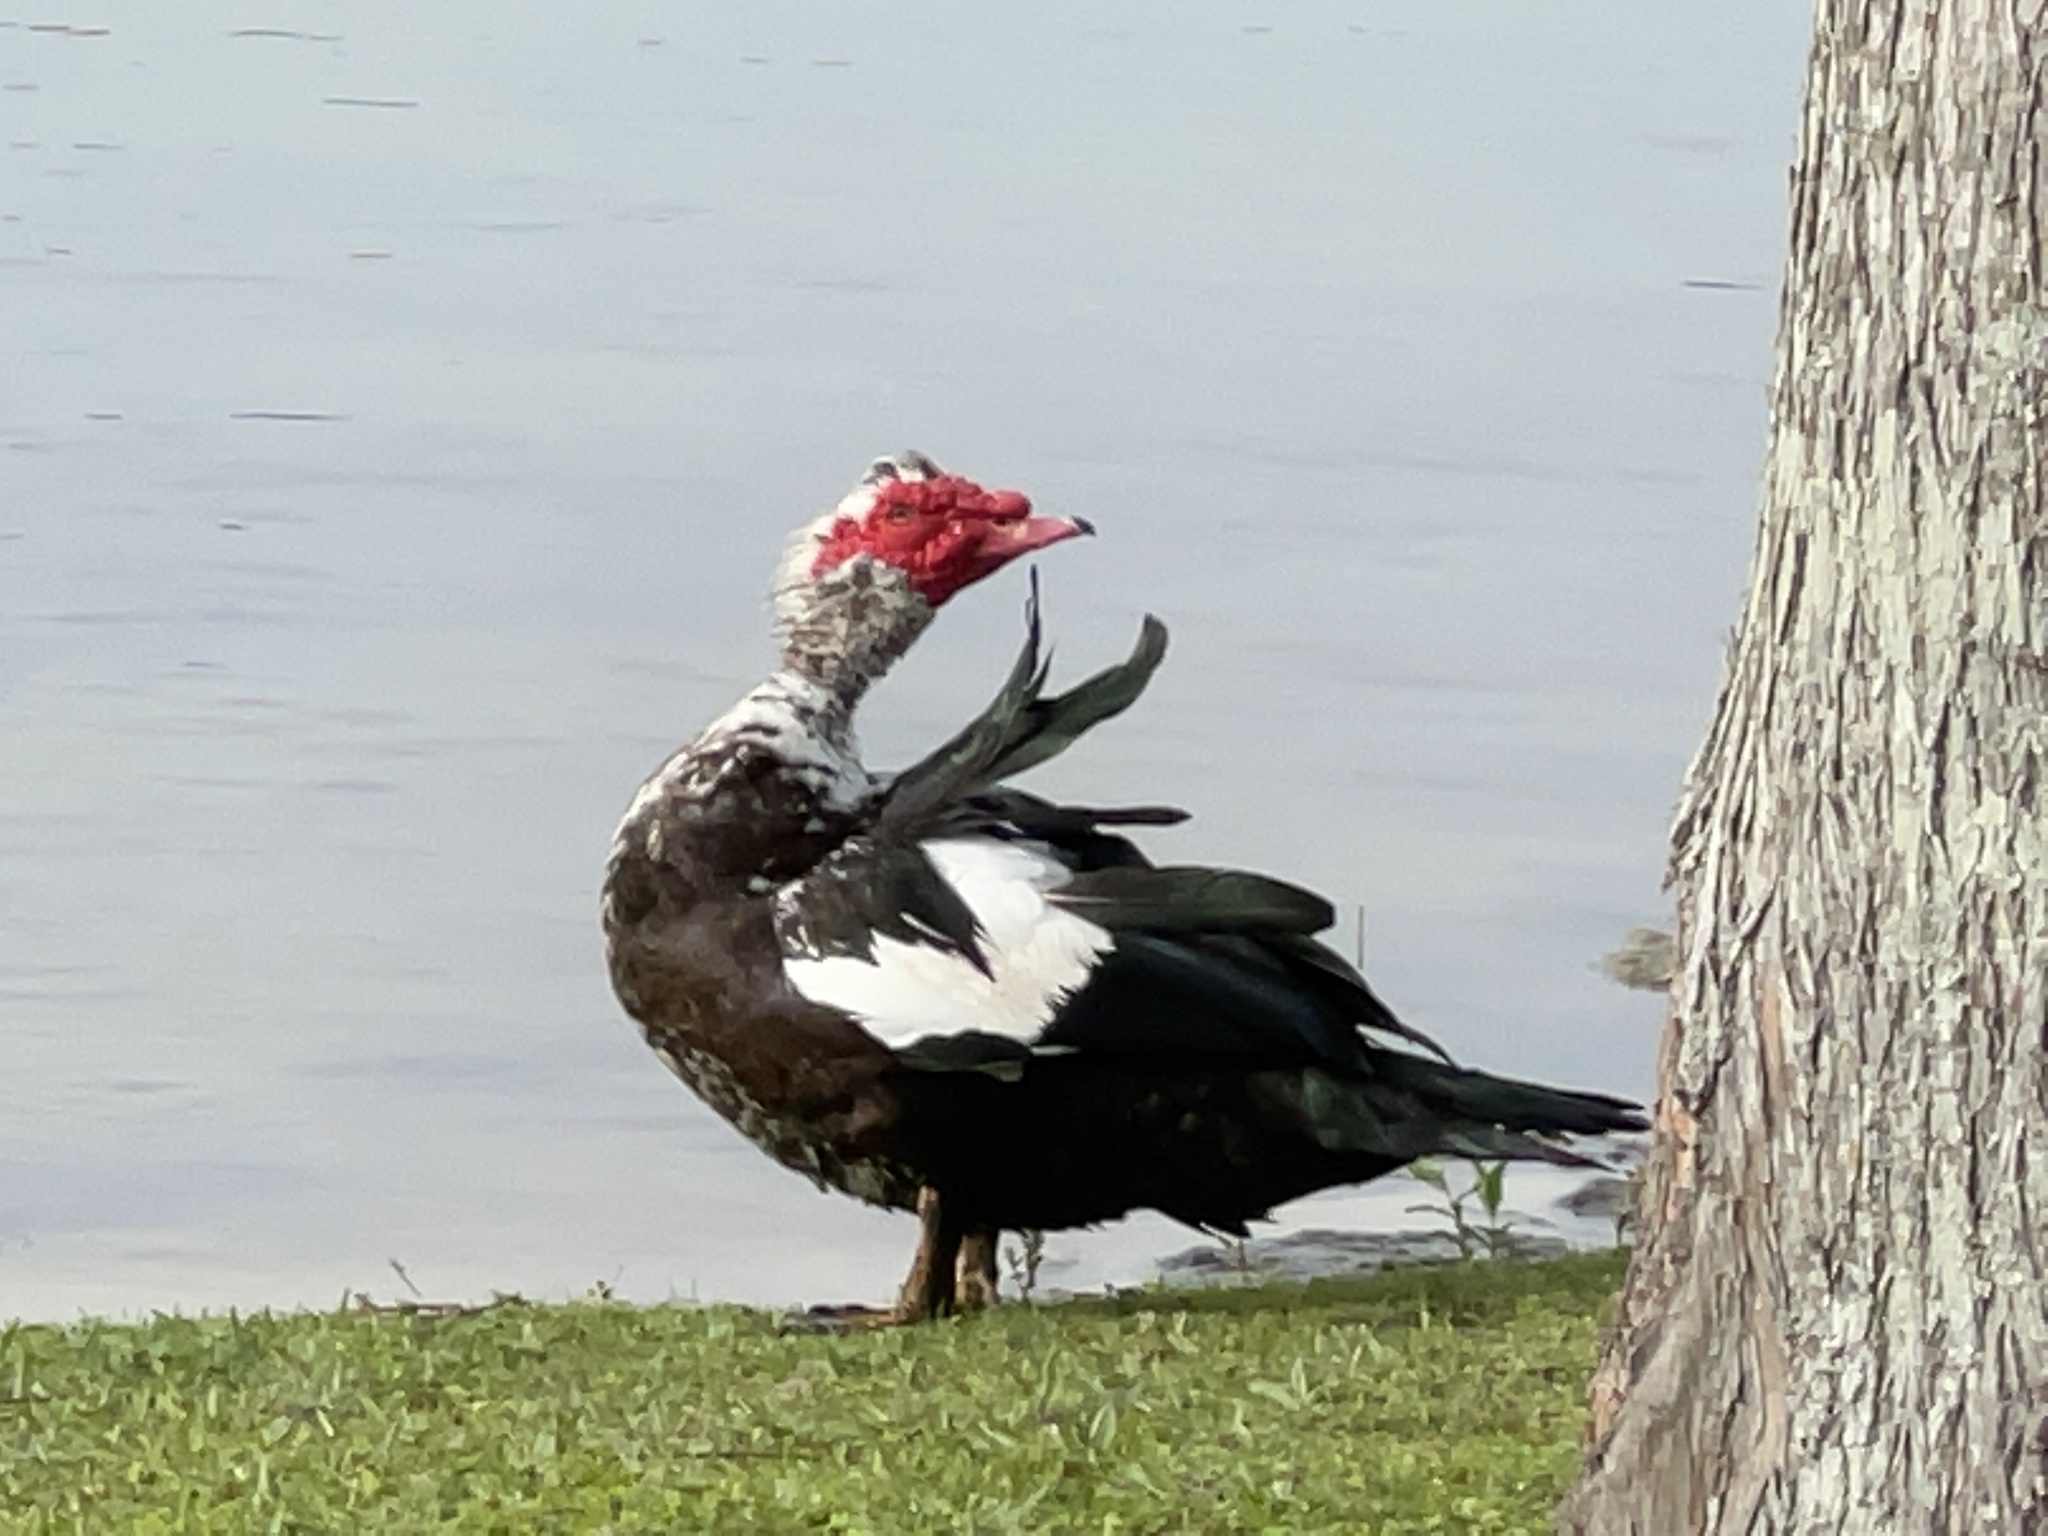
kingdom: Animalia
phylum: Chordata
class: Aves
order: Anseriformes
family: Anatidae
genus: Cairina
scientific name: Cairina moschata
